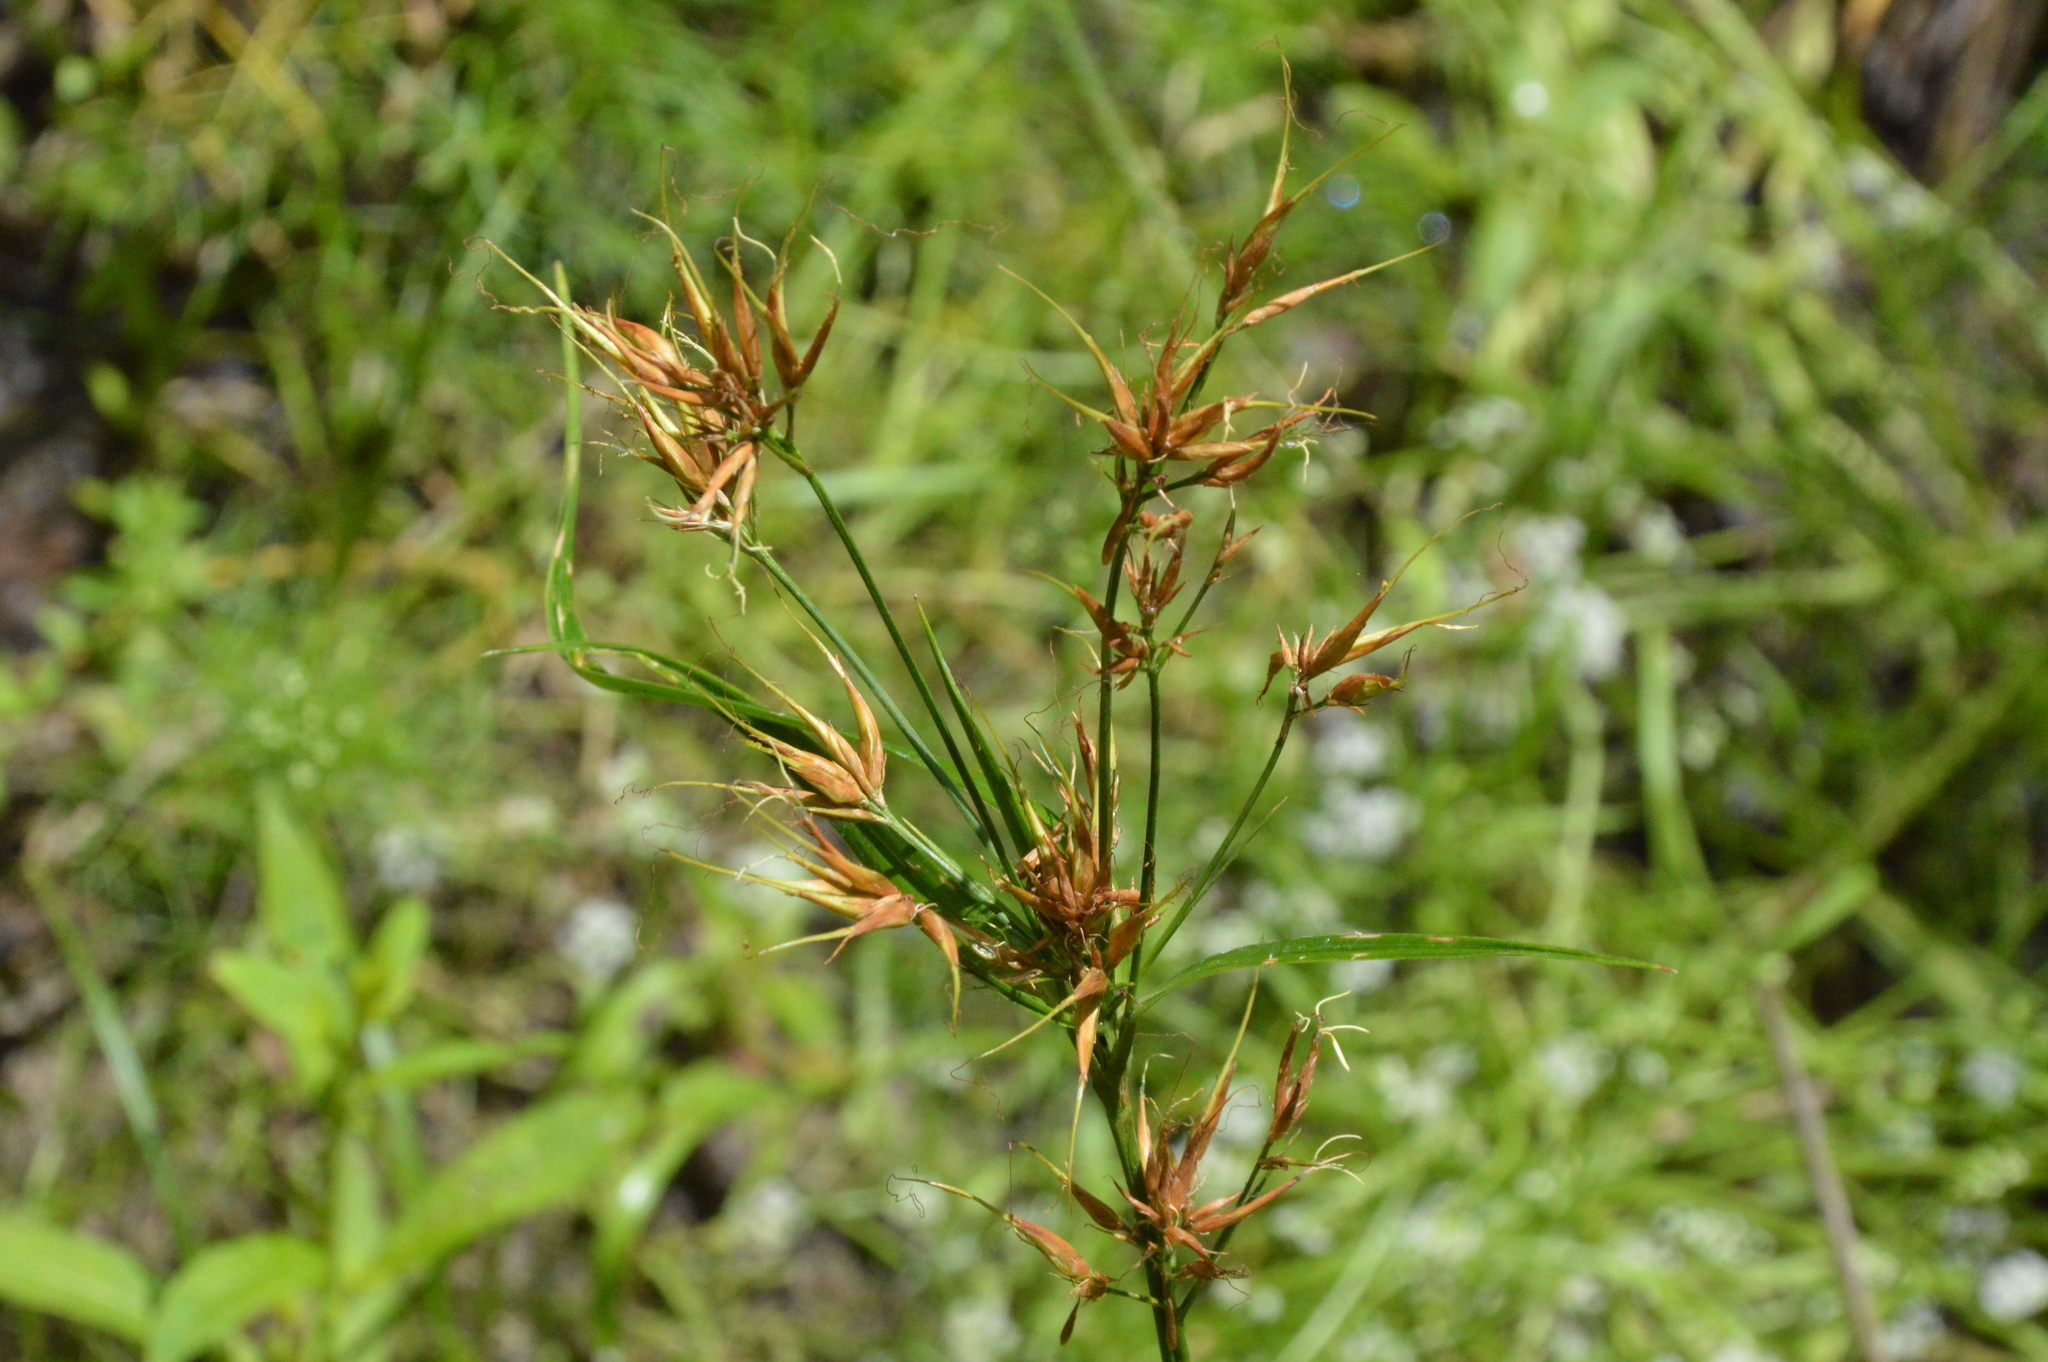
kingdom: Plantae
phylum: Tracheophyta
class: Liliopsida
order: Poales
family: Cyperaceae
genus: Rhynchospora
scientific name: Rhynchospora corniculata
